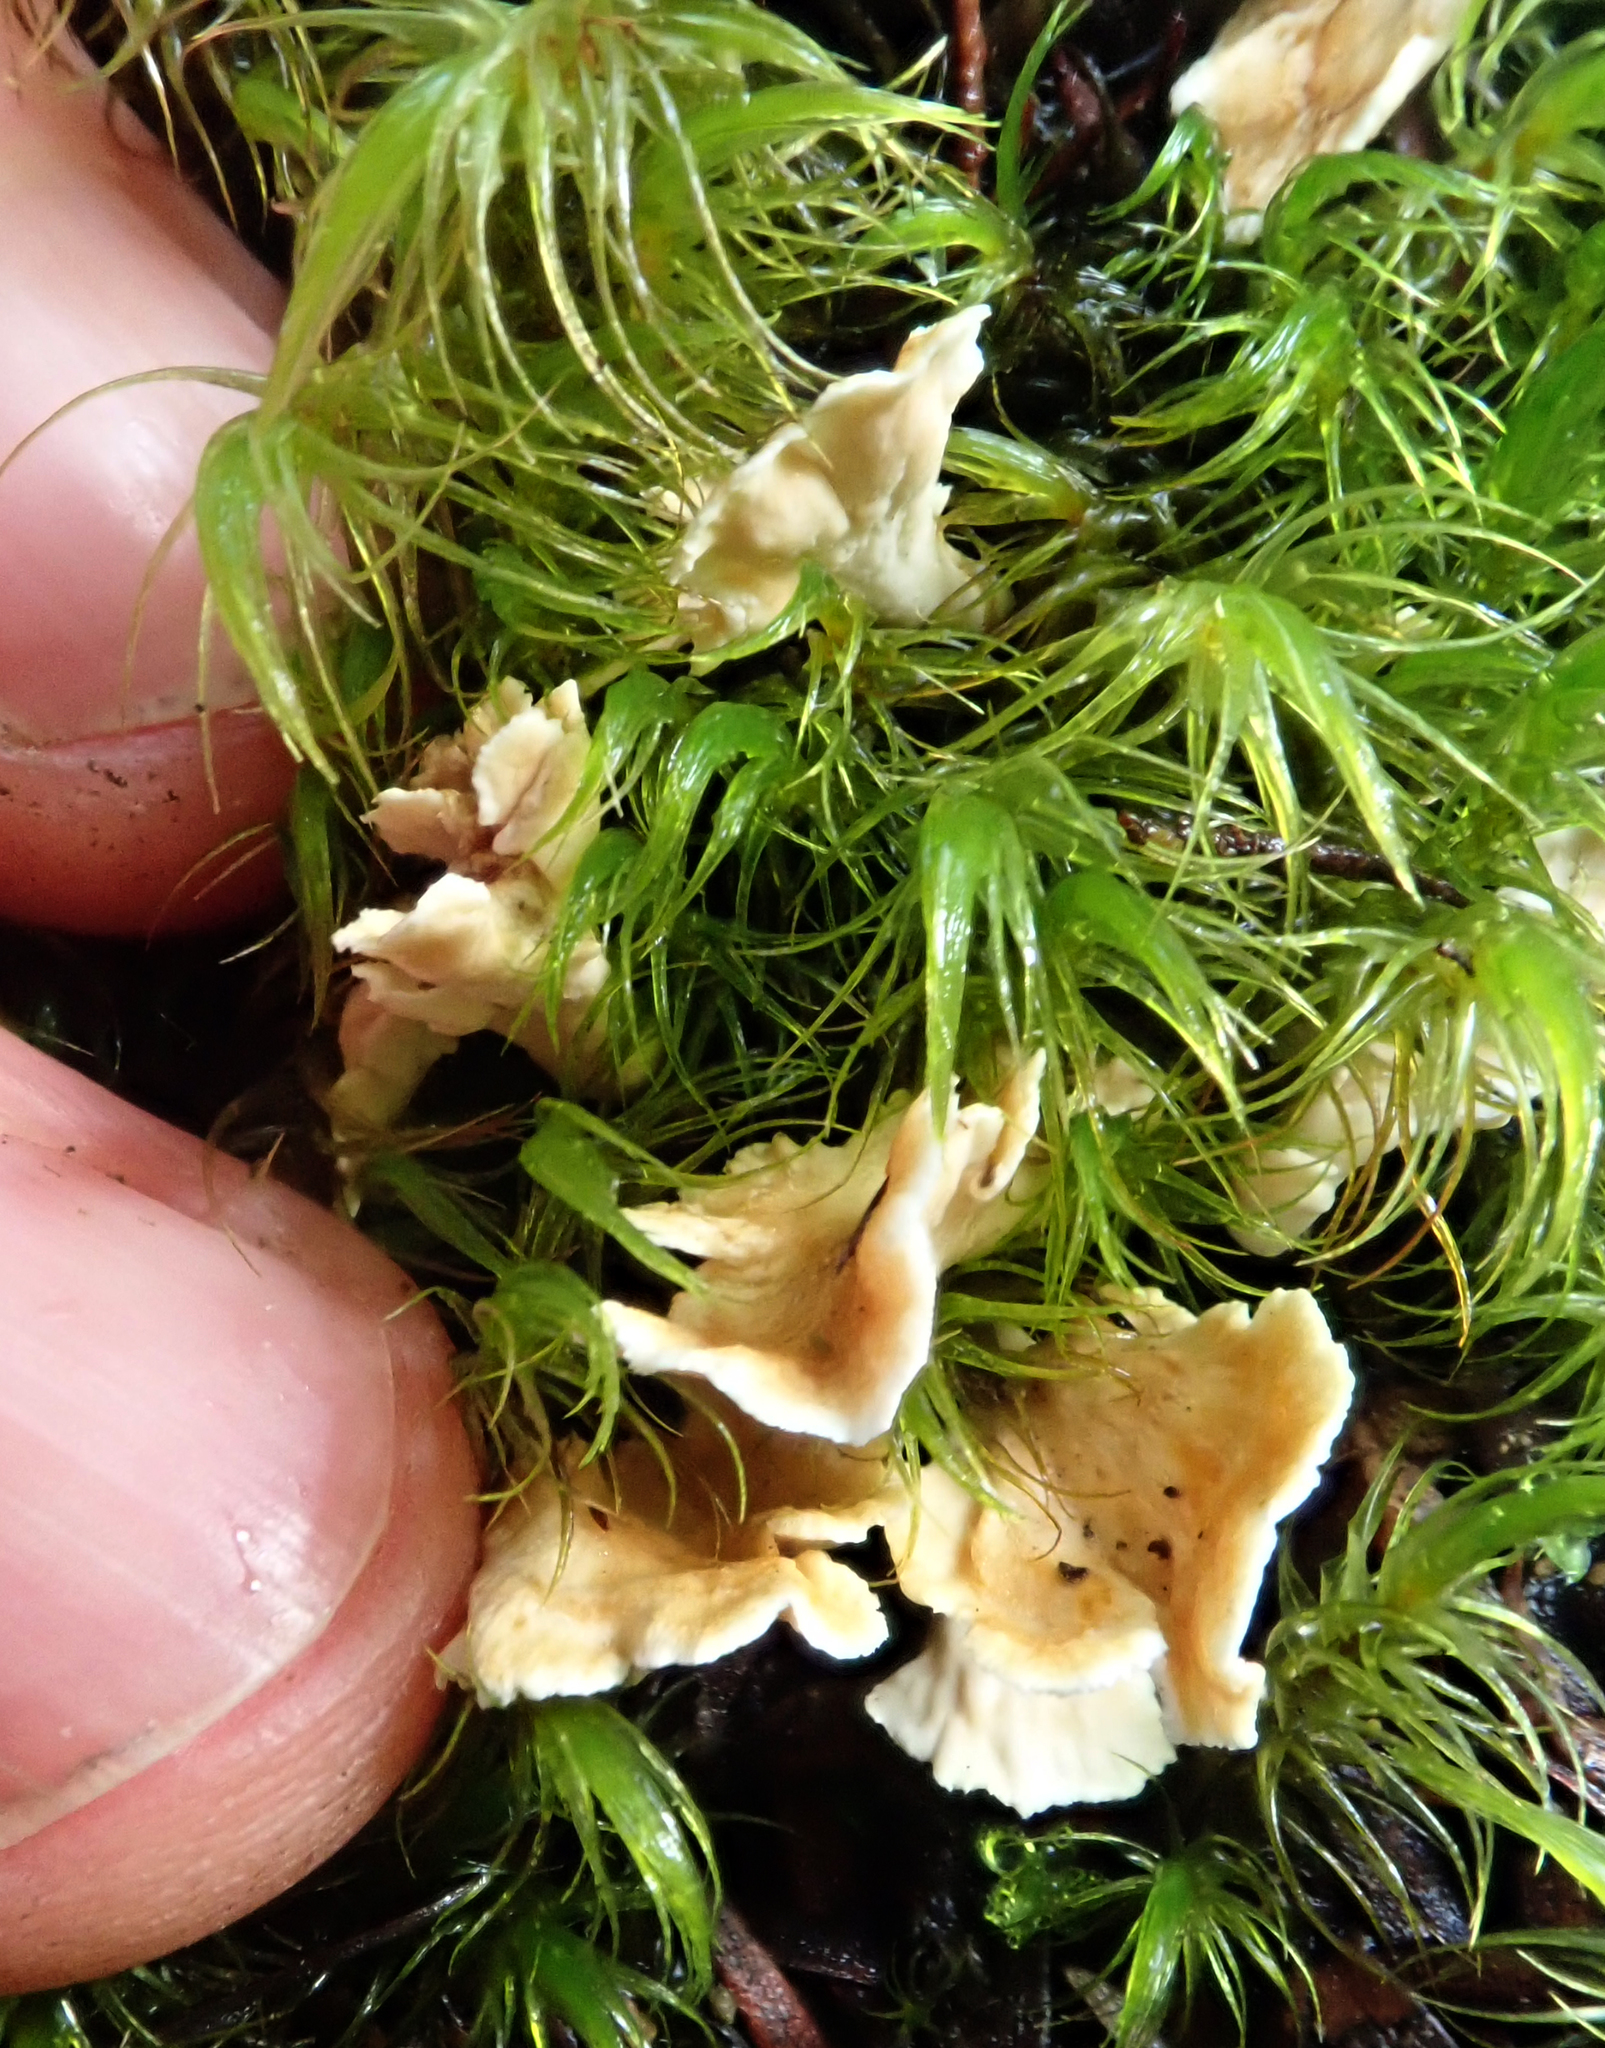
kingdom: Fungi
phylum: Basidiomycota
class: Agaricomycetes
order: Amylocorticiales
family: Amylocorticiaceae
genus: Podoserpula
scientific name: Podoserpula
